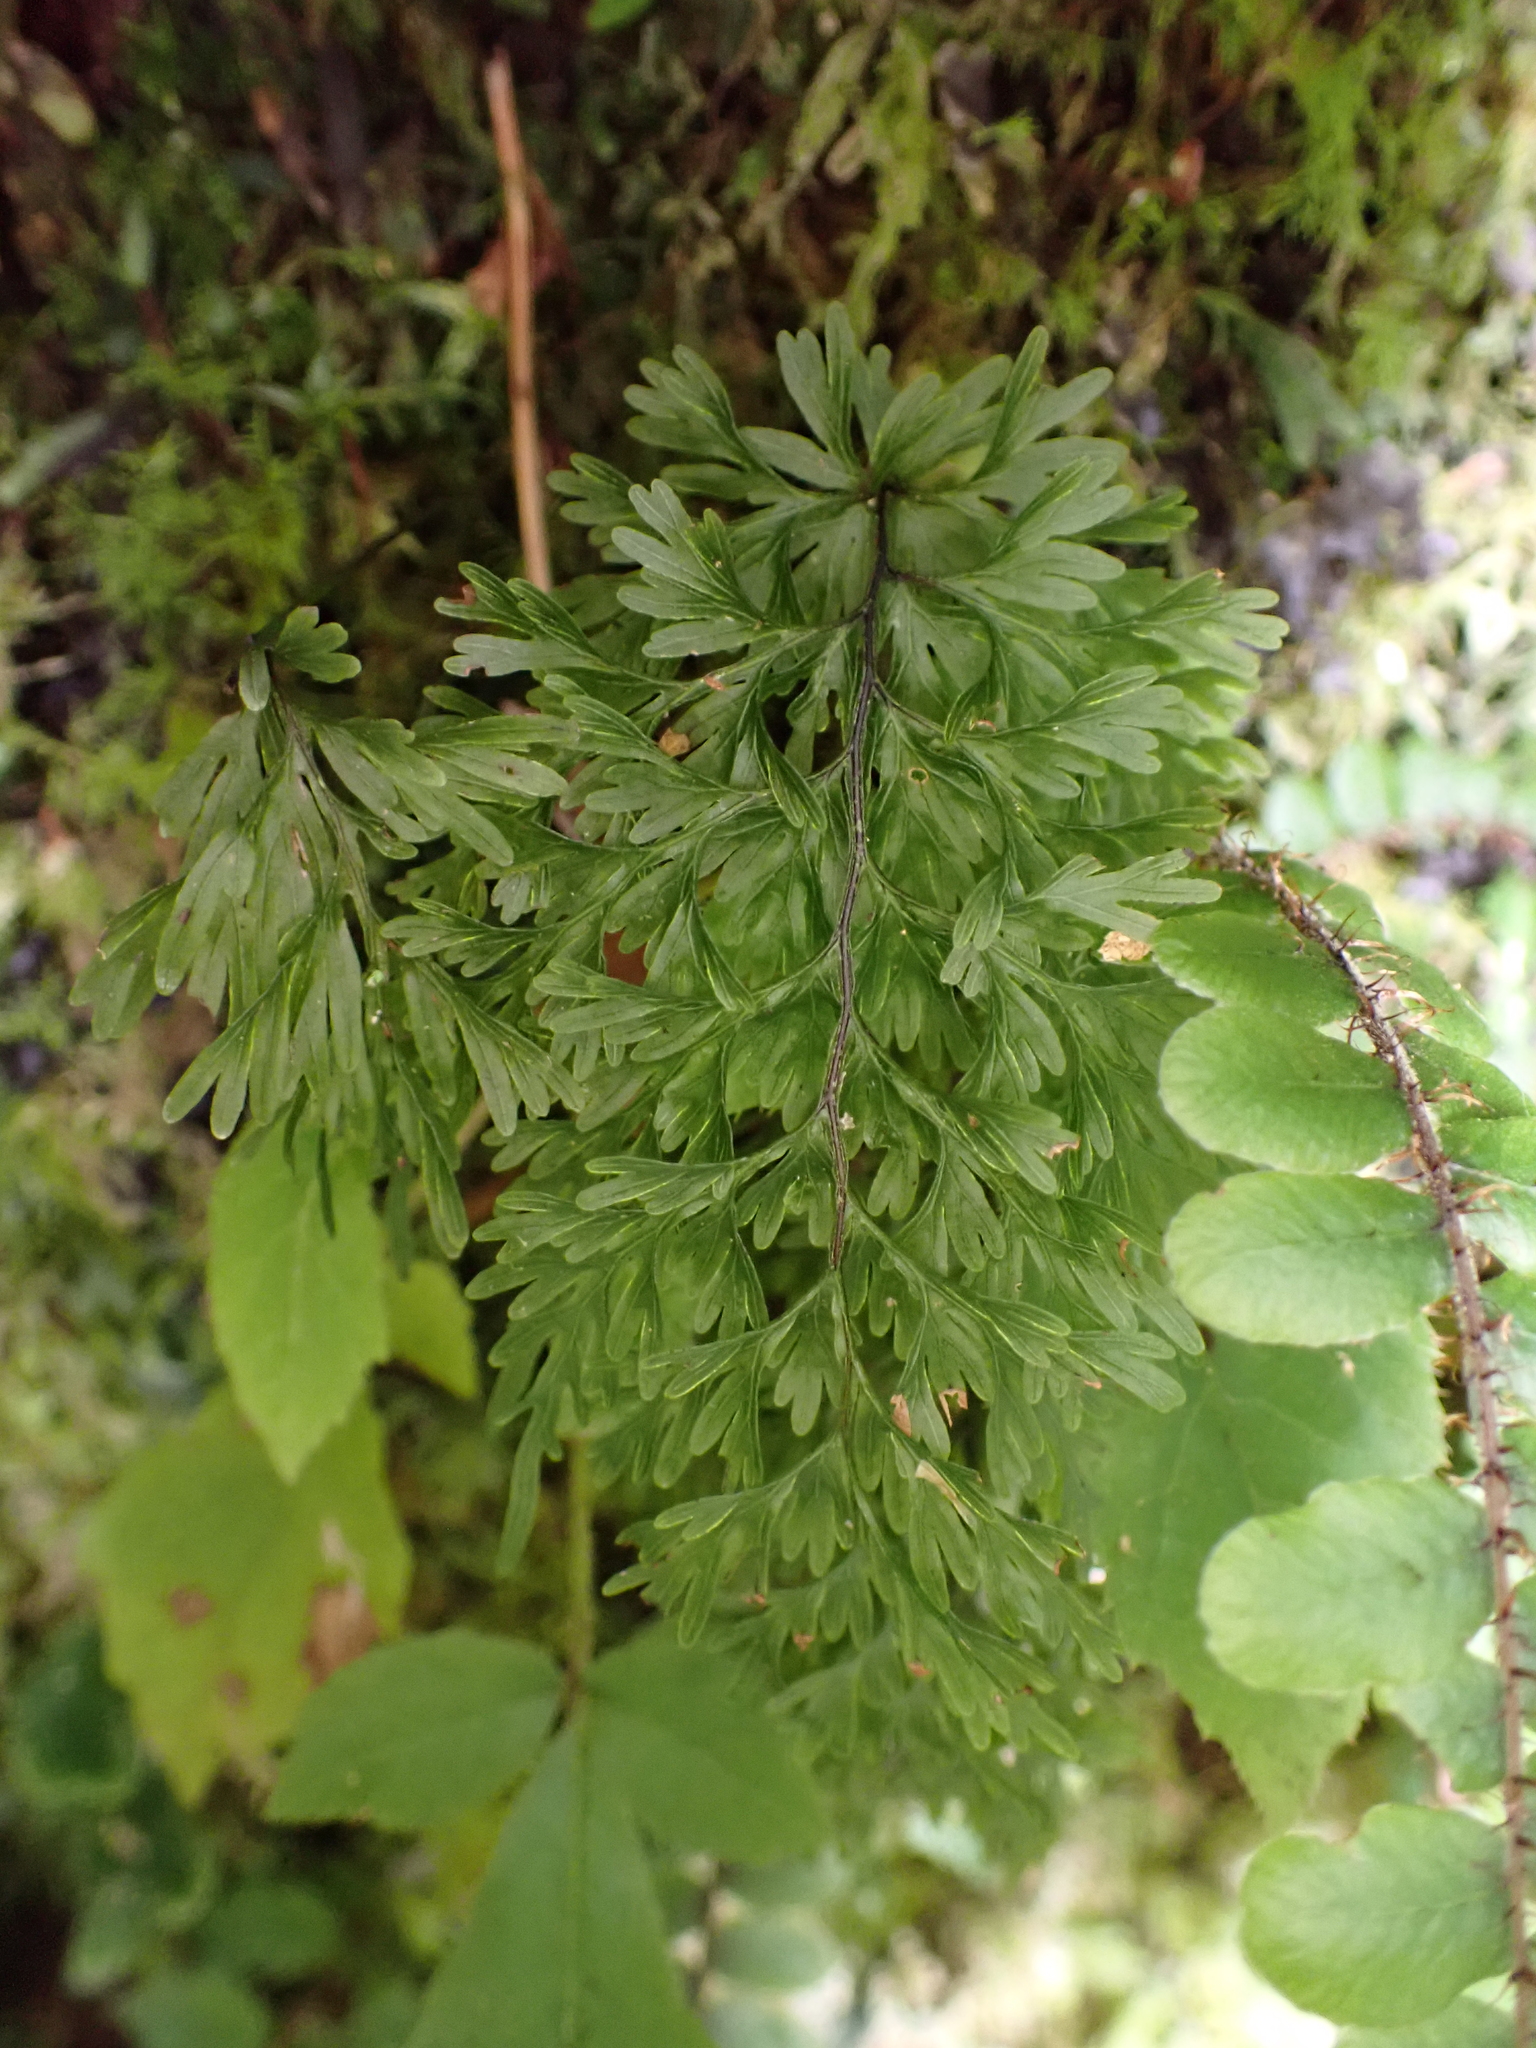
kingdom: Plantae
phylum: Tracheophyta
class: Polypodiopsida
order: Hymenophyllales
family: Hymenophyllaceae
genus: Hymenophyllum
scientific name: Hymenophyllum demissum
